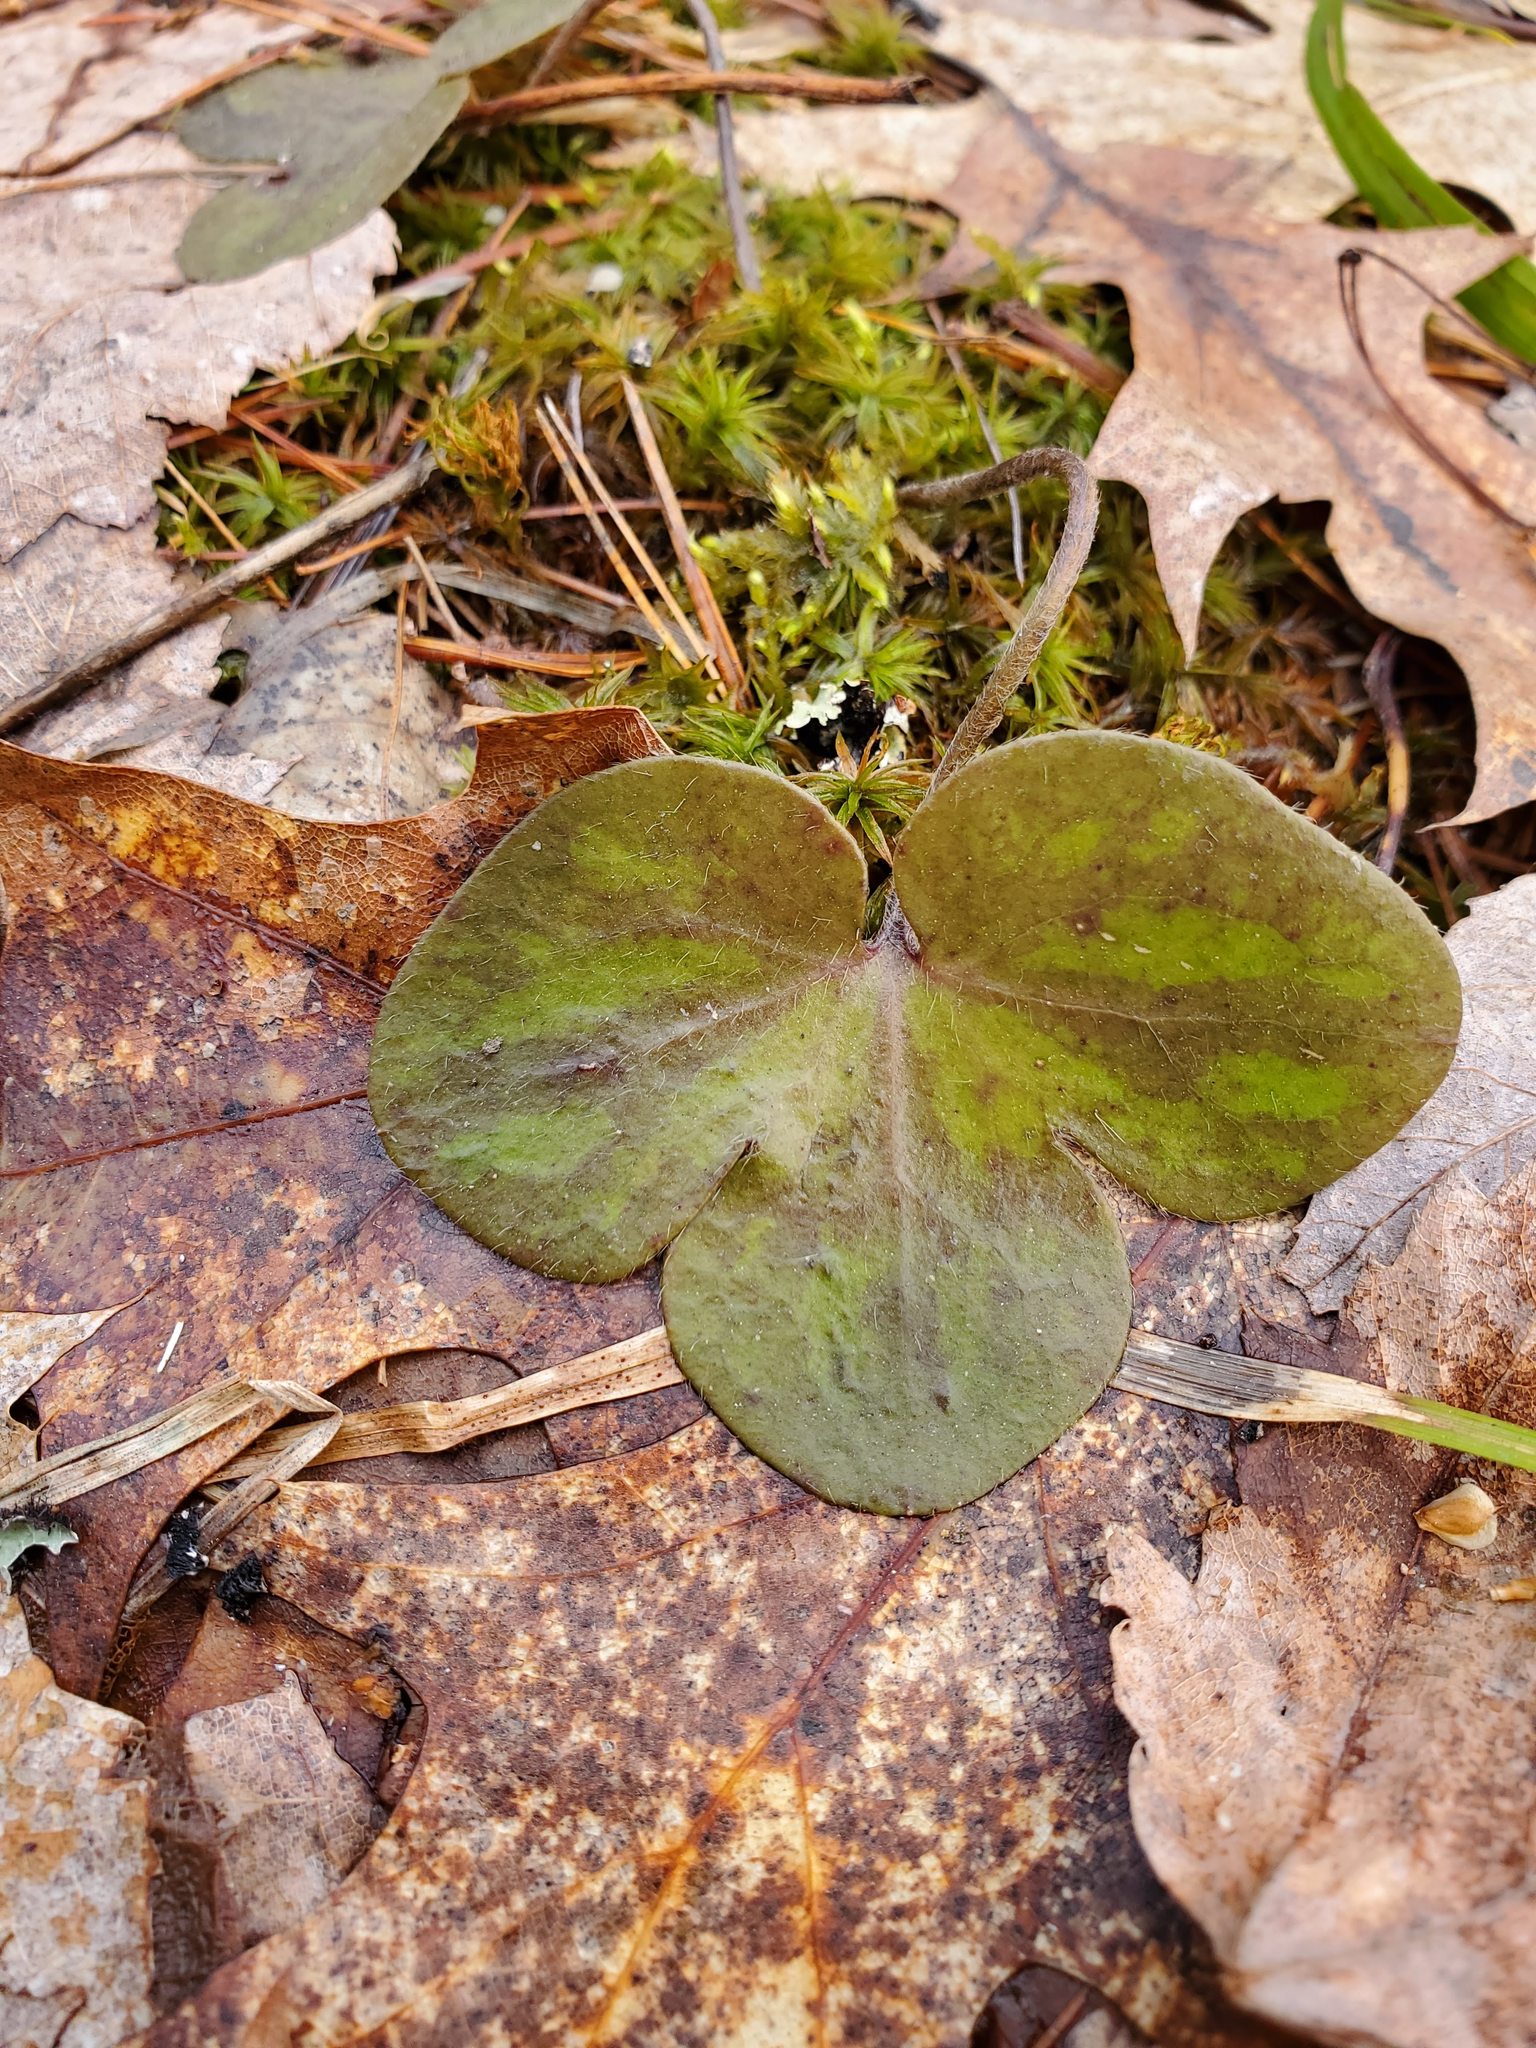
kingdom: Plantae
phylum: Tracheophyta
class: Magnoliopsida
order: Ranunculales
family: Ranunculaceae
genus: Hepatica
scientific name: Hepatica americana
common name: American hepatica
